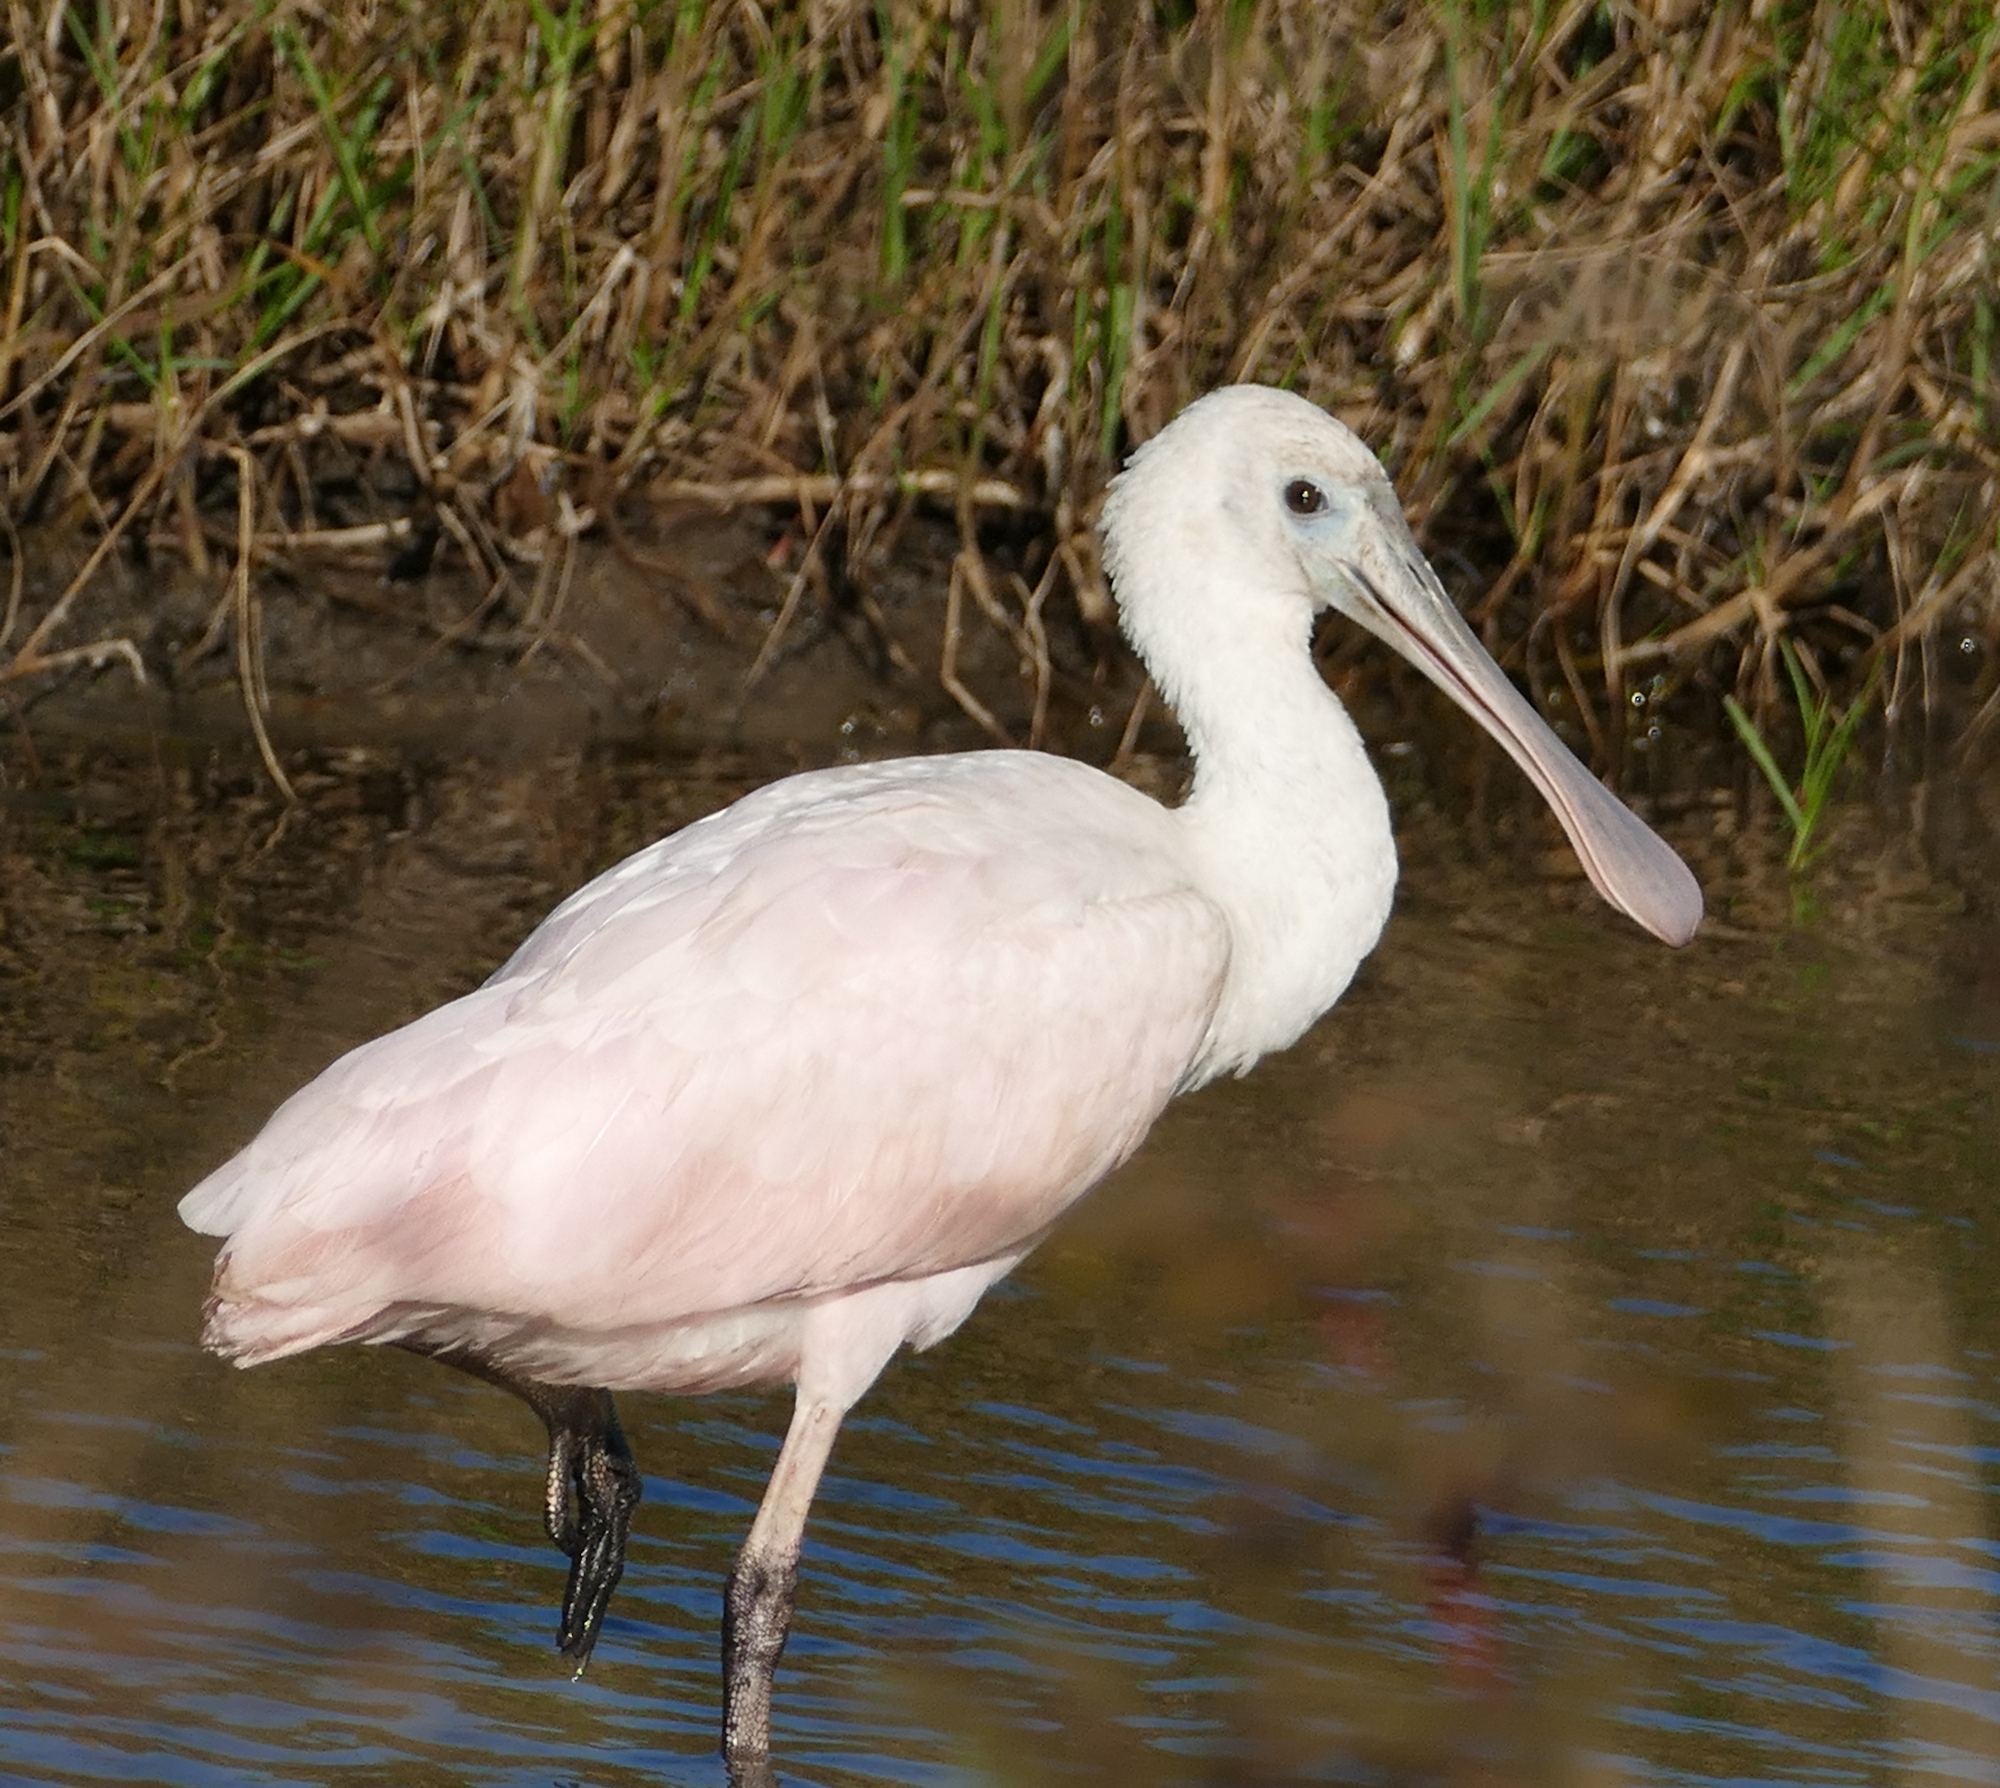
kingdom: Animalia
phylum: Chordata
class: Aves
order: Pelecaniformes
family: Threskiornithidae
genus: Platalea
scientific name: Platalea ajaja
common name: Roseate spoonbill
